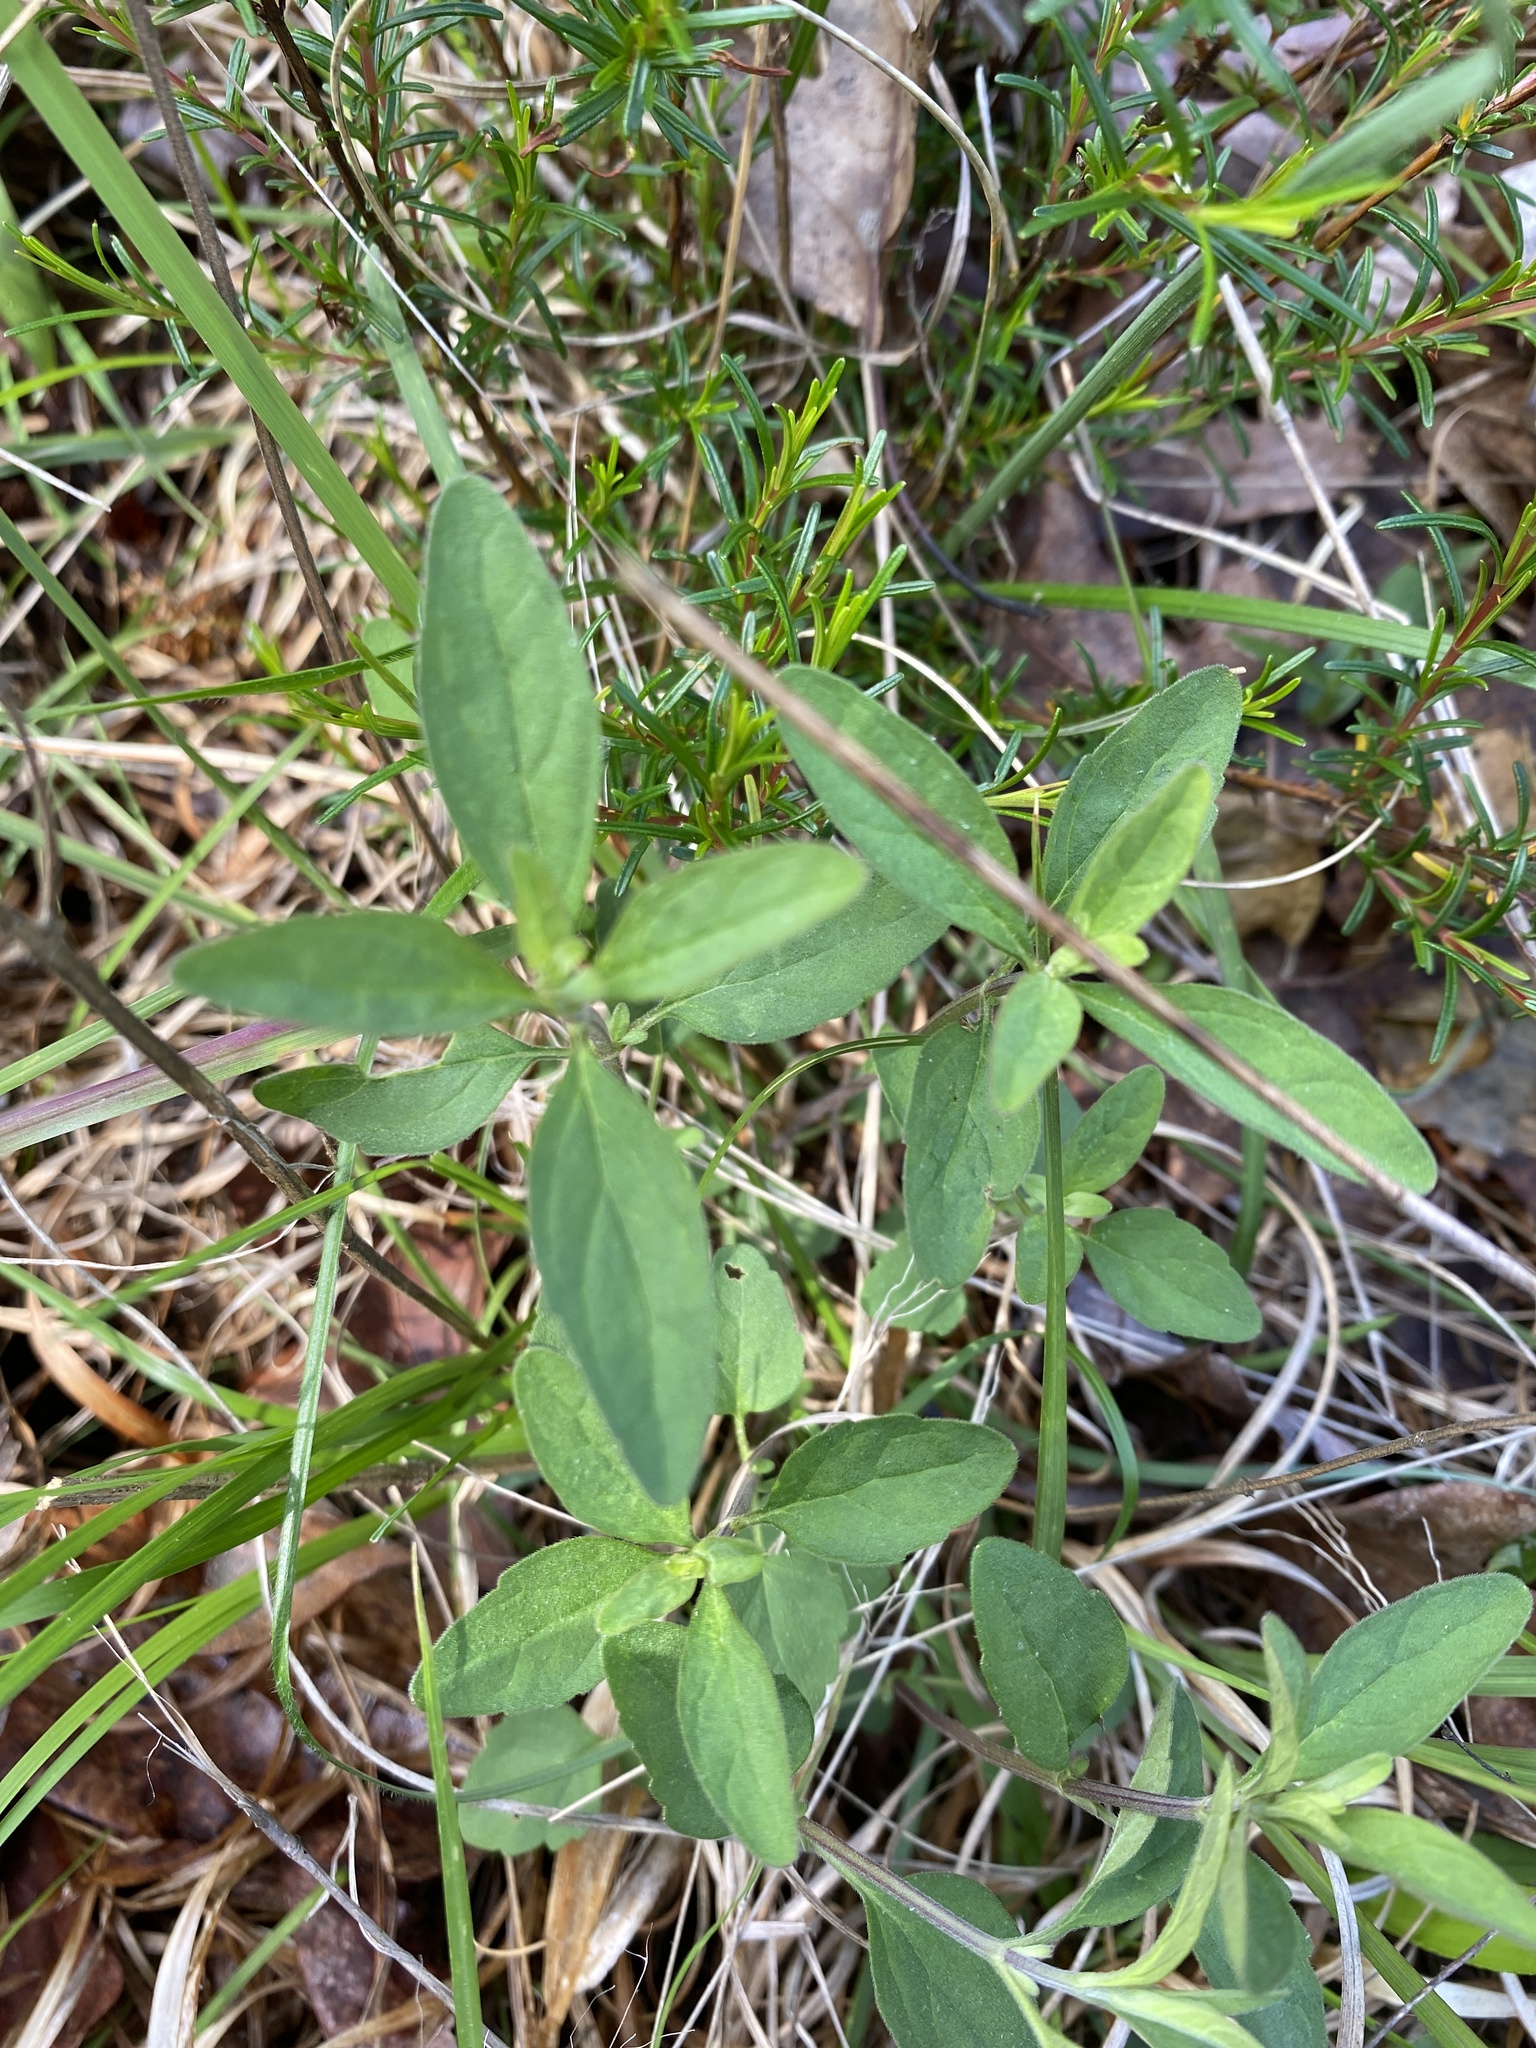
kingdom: Plantae
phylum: Tracheophyta
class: Magnoliopsida
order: Lamiales
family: Lamiaceae
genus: Scutellaria
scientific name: Scutellaria integrifolia
